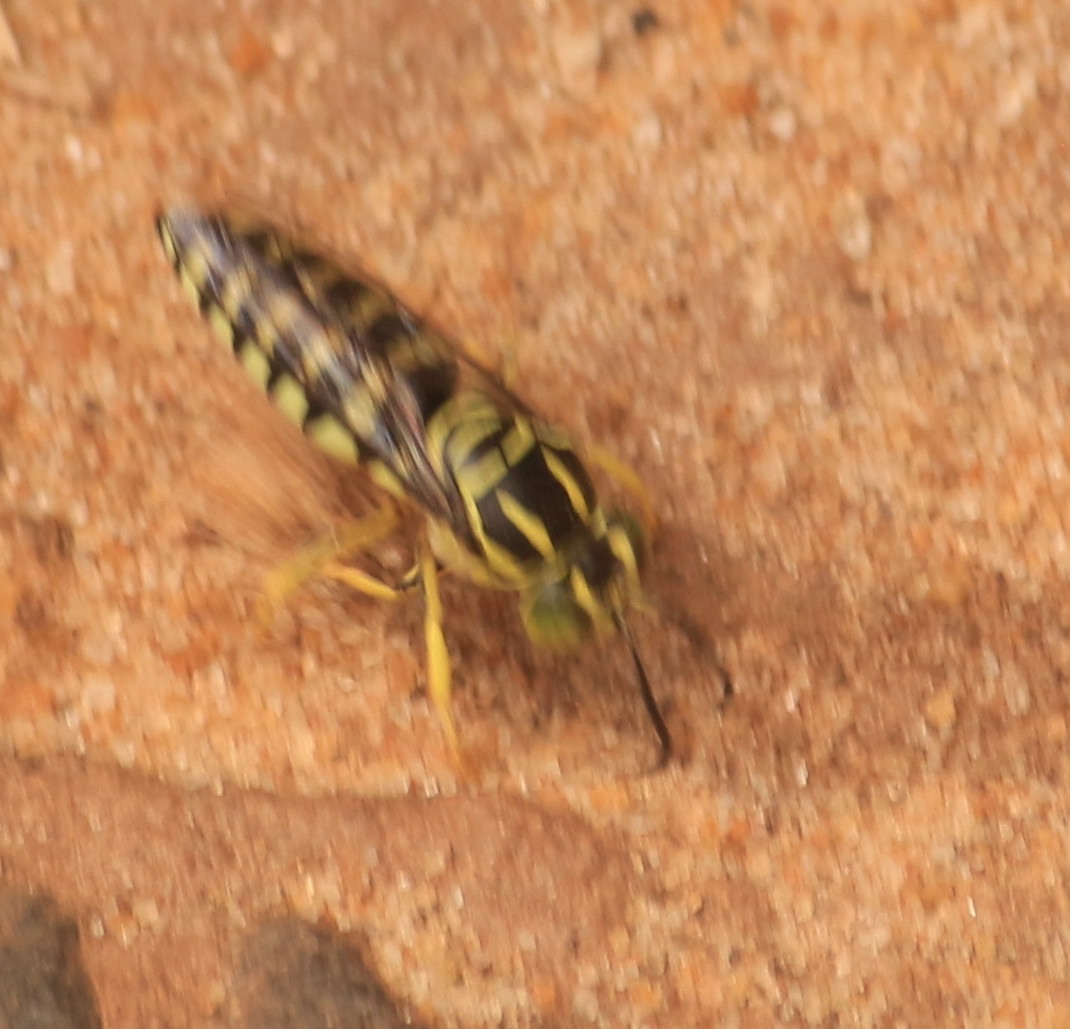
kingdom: Animalia
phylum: Arthropoda
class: Insecta
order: Hymenoptera
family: Crabronidae
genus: Bicyrtes
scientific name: Bicyrtes variegatus
